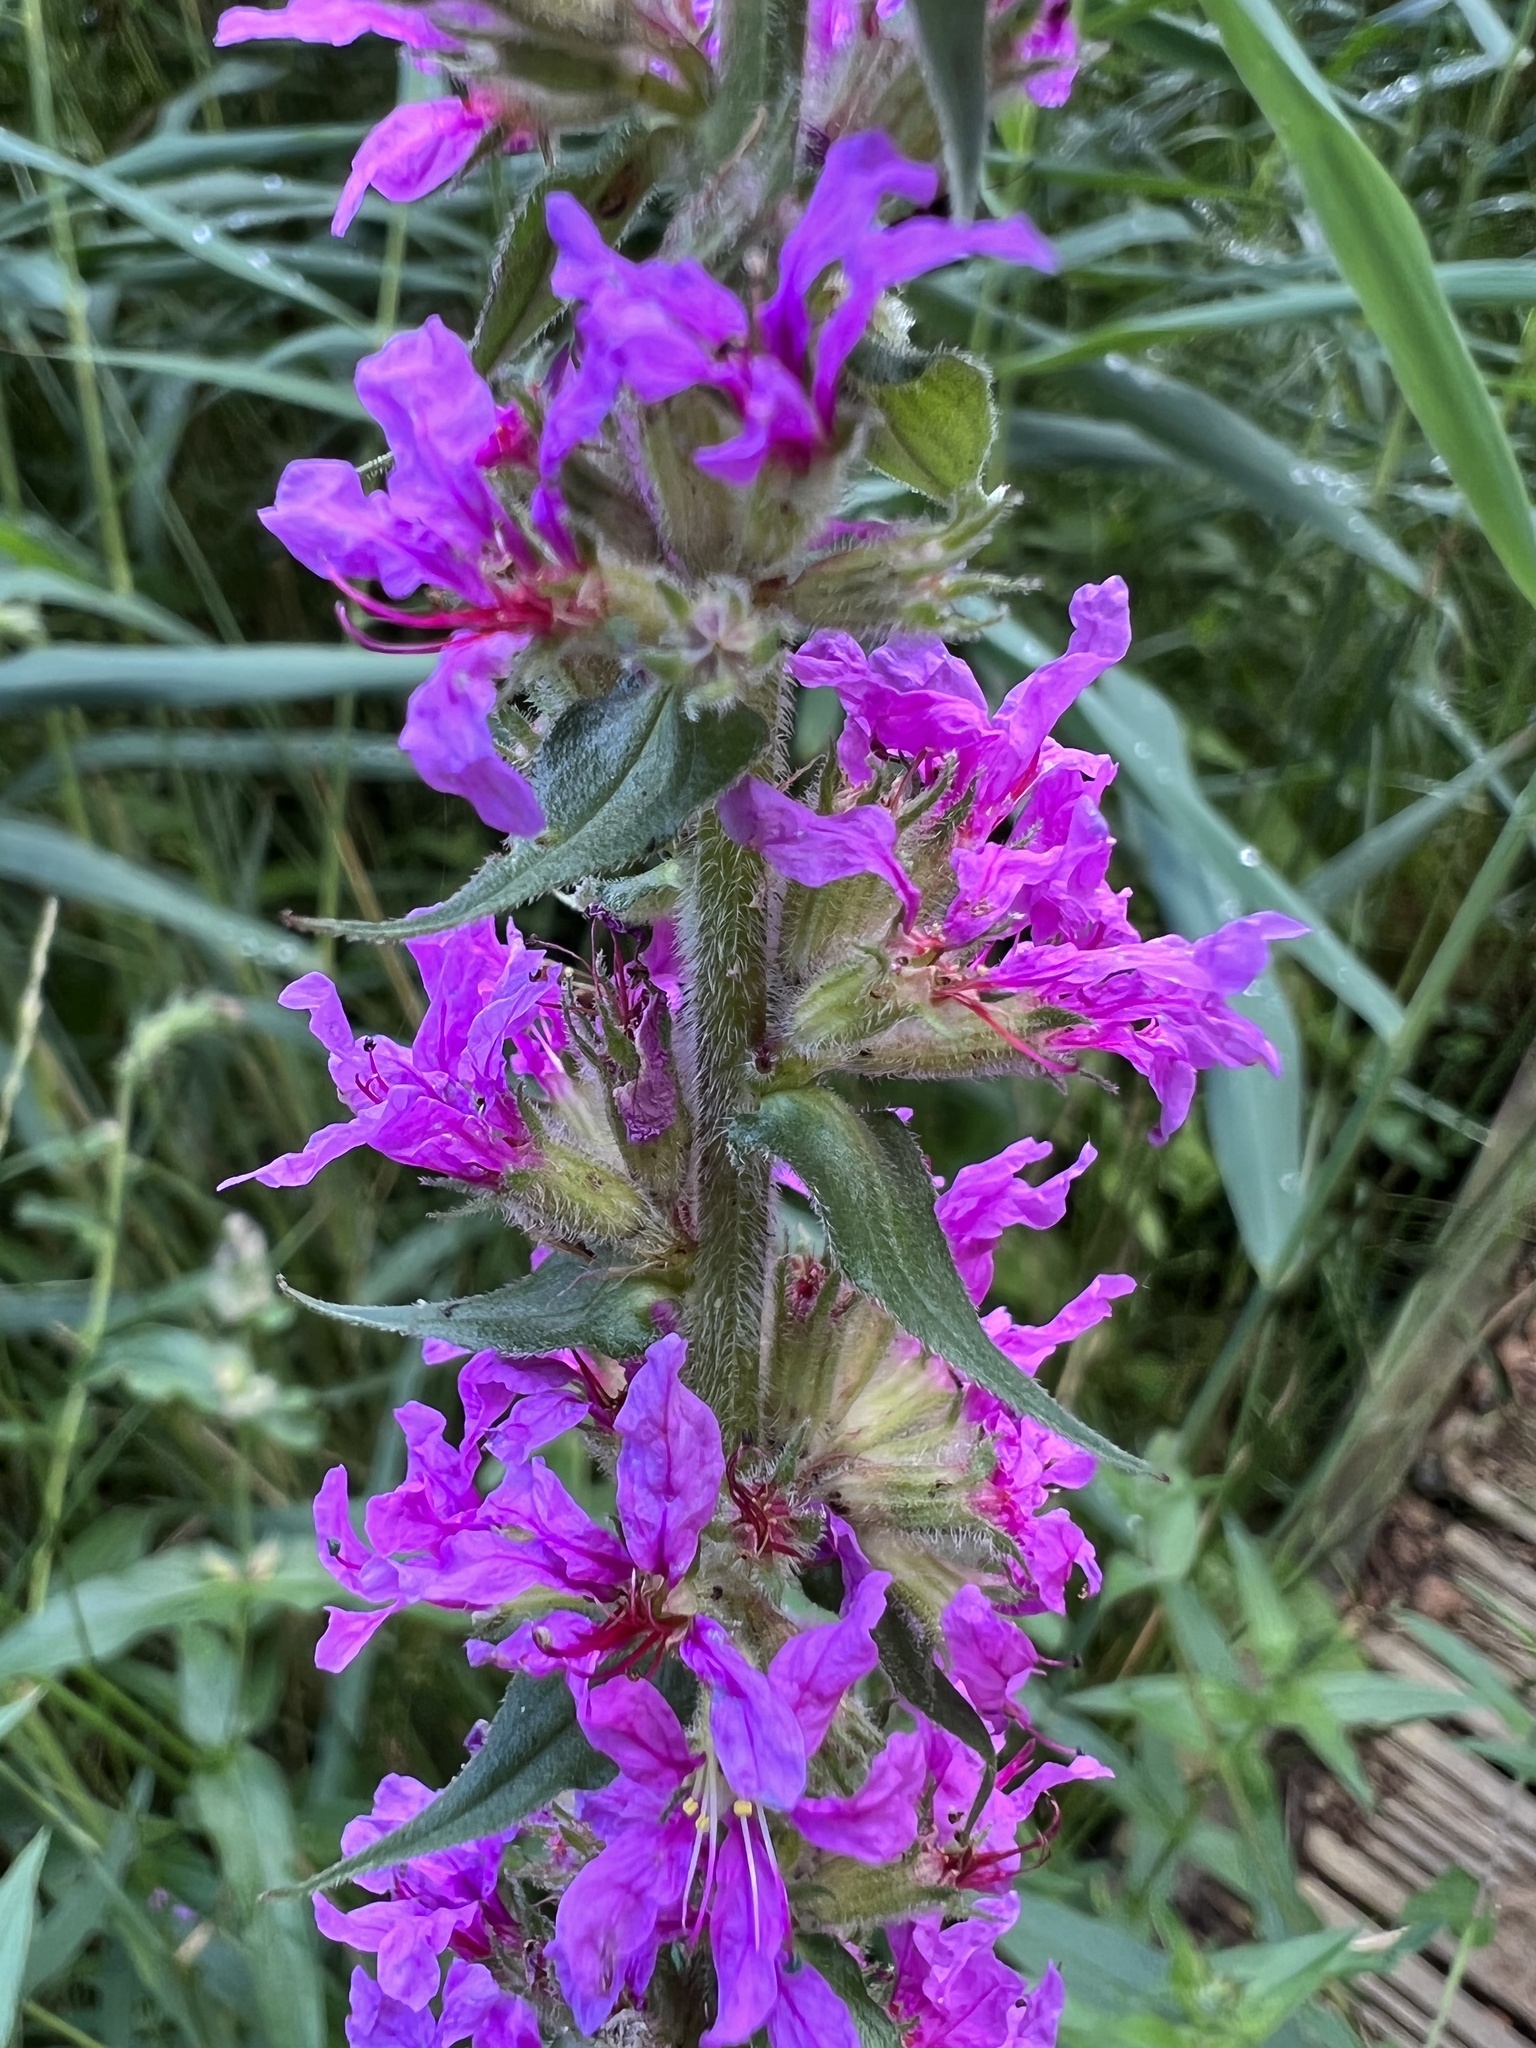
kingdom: Plantae
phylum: Tracheophyta
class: Magnoliopsida
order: Myrtales
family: Lythraceae
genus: Lythrum
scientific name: Lythrum salicaria
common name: Purple loosestrife
